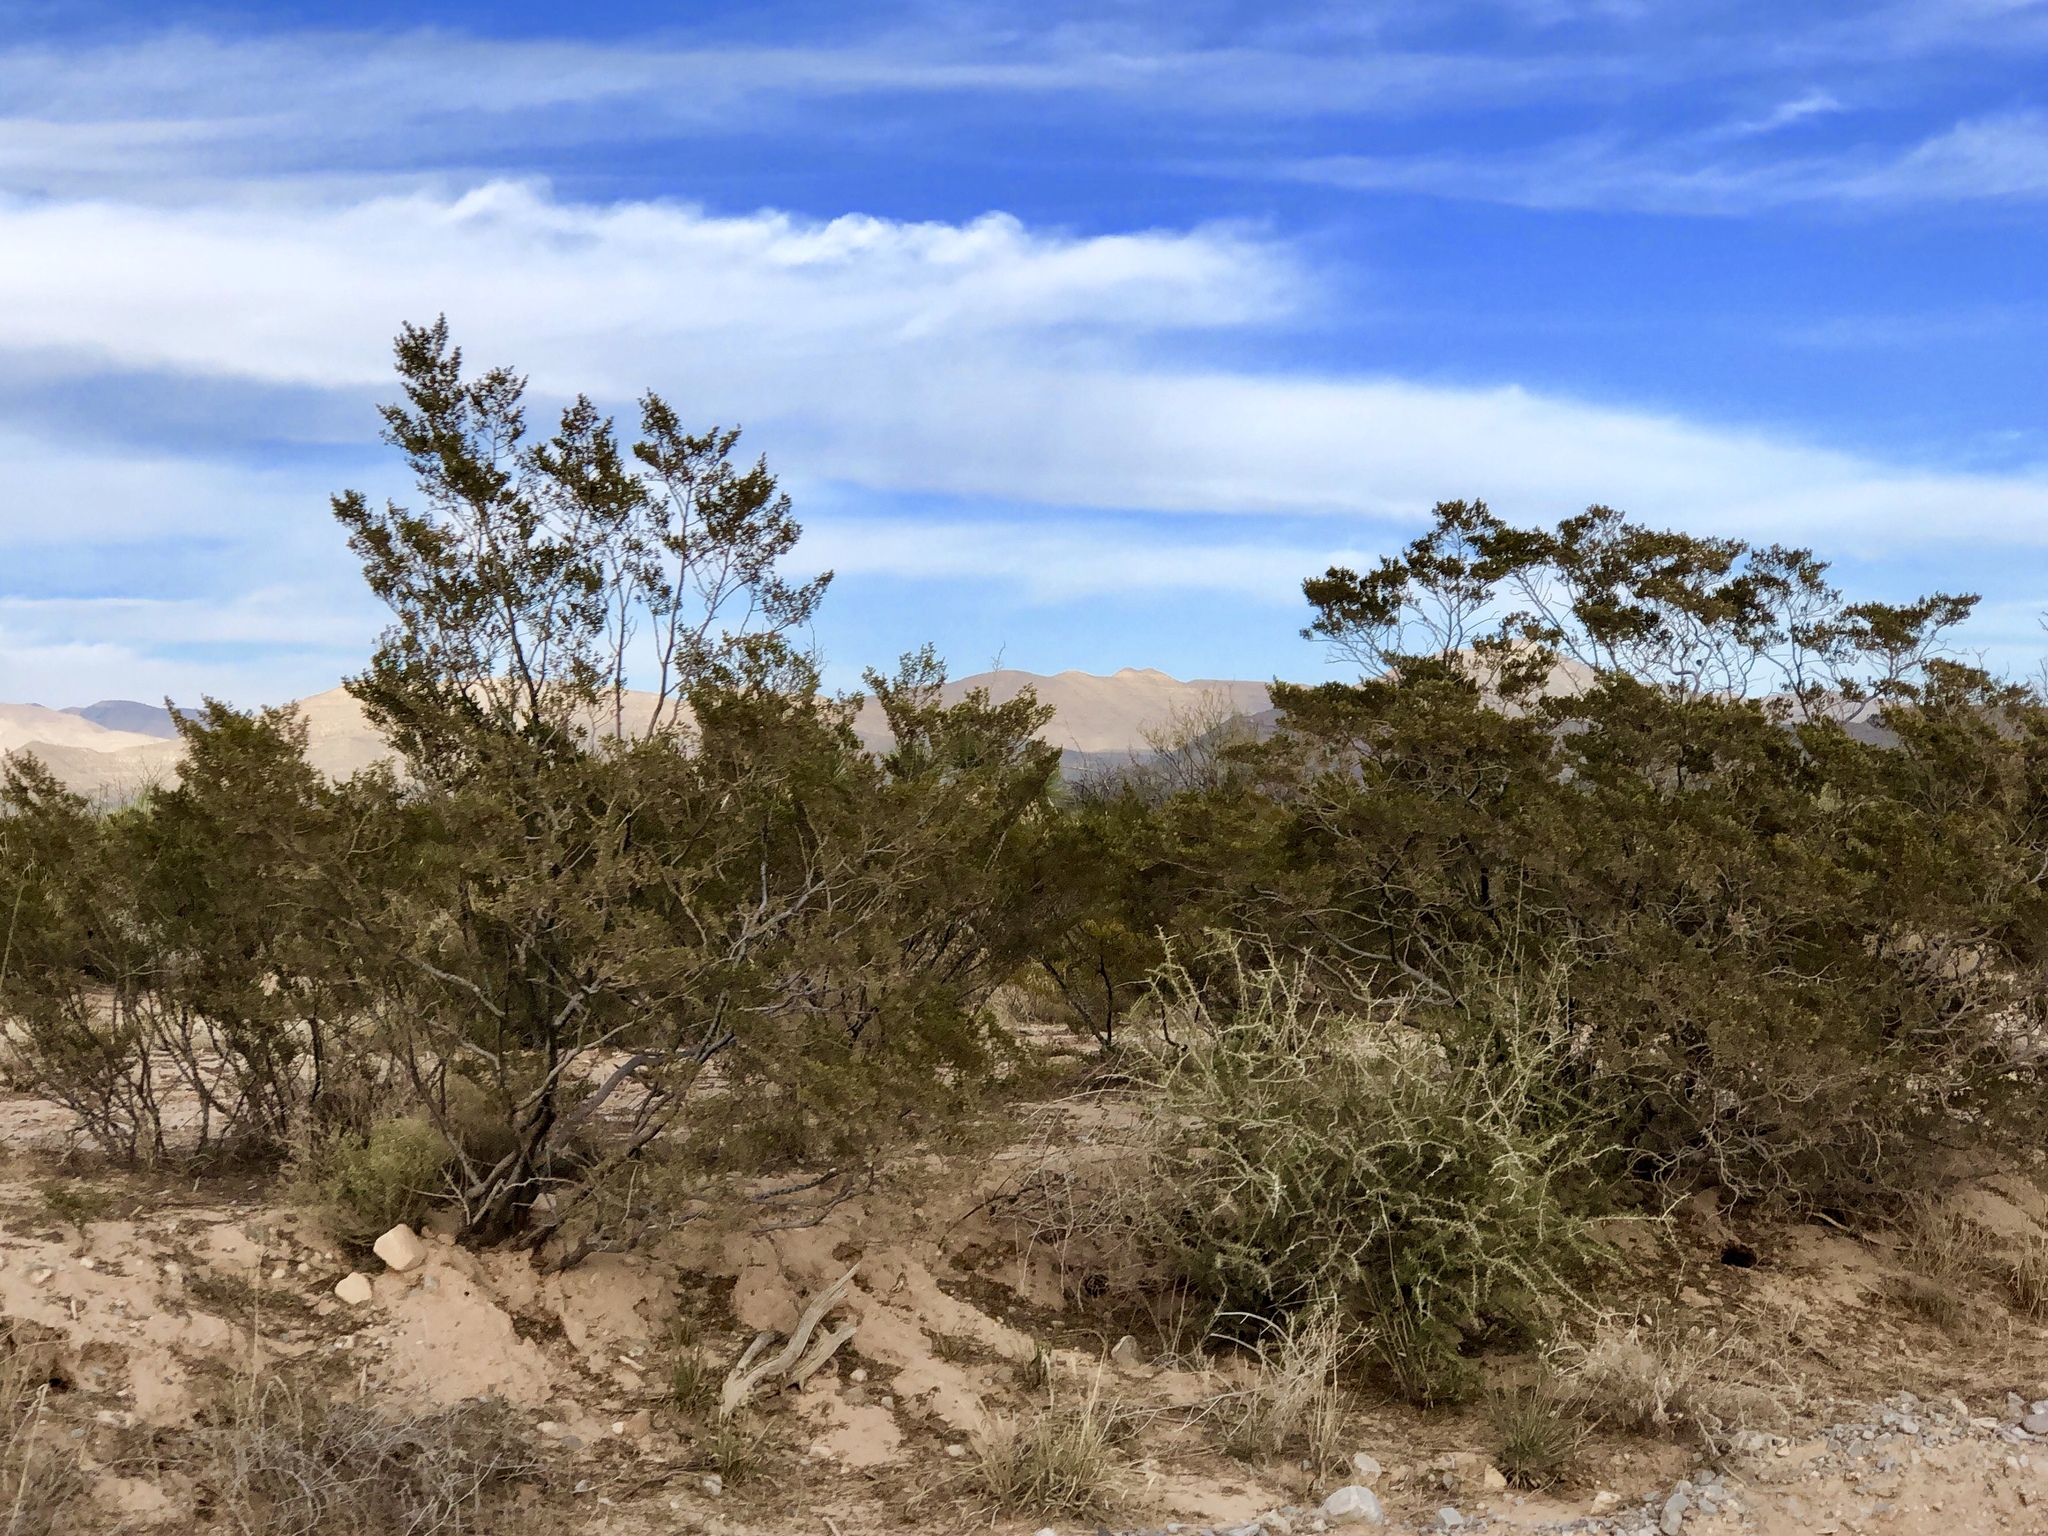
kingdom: Plantae
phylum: Tracheophyta
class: Magnoliopsida
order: Zygophyllales
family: Zygophyllaceae
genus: Larrea
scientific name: Larrea tridentata
